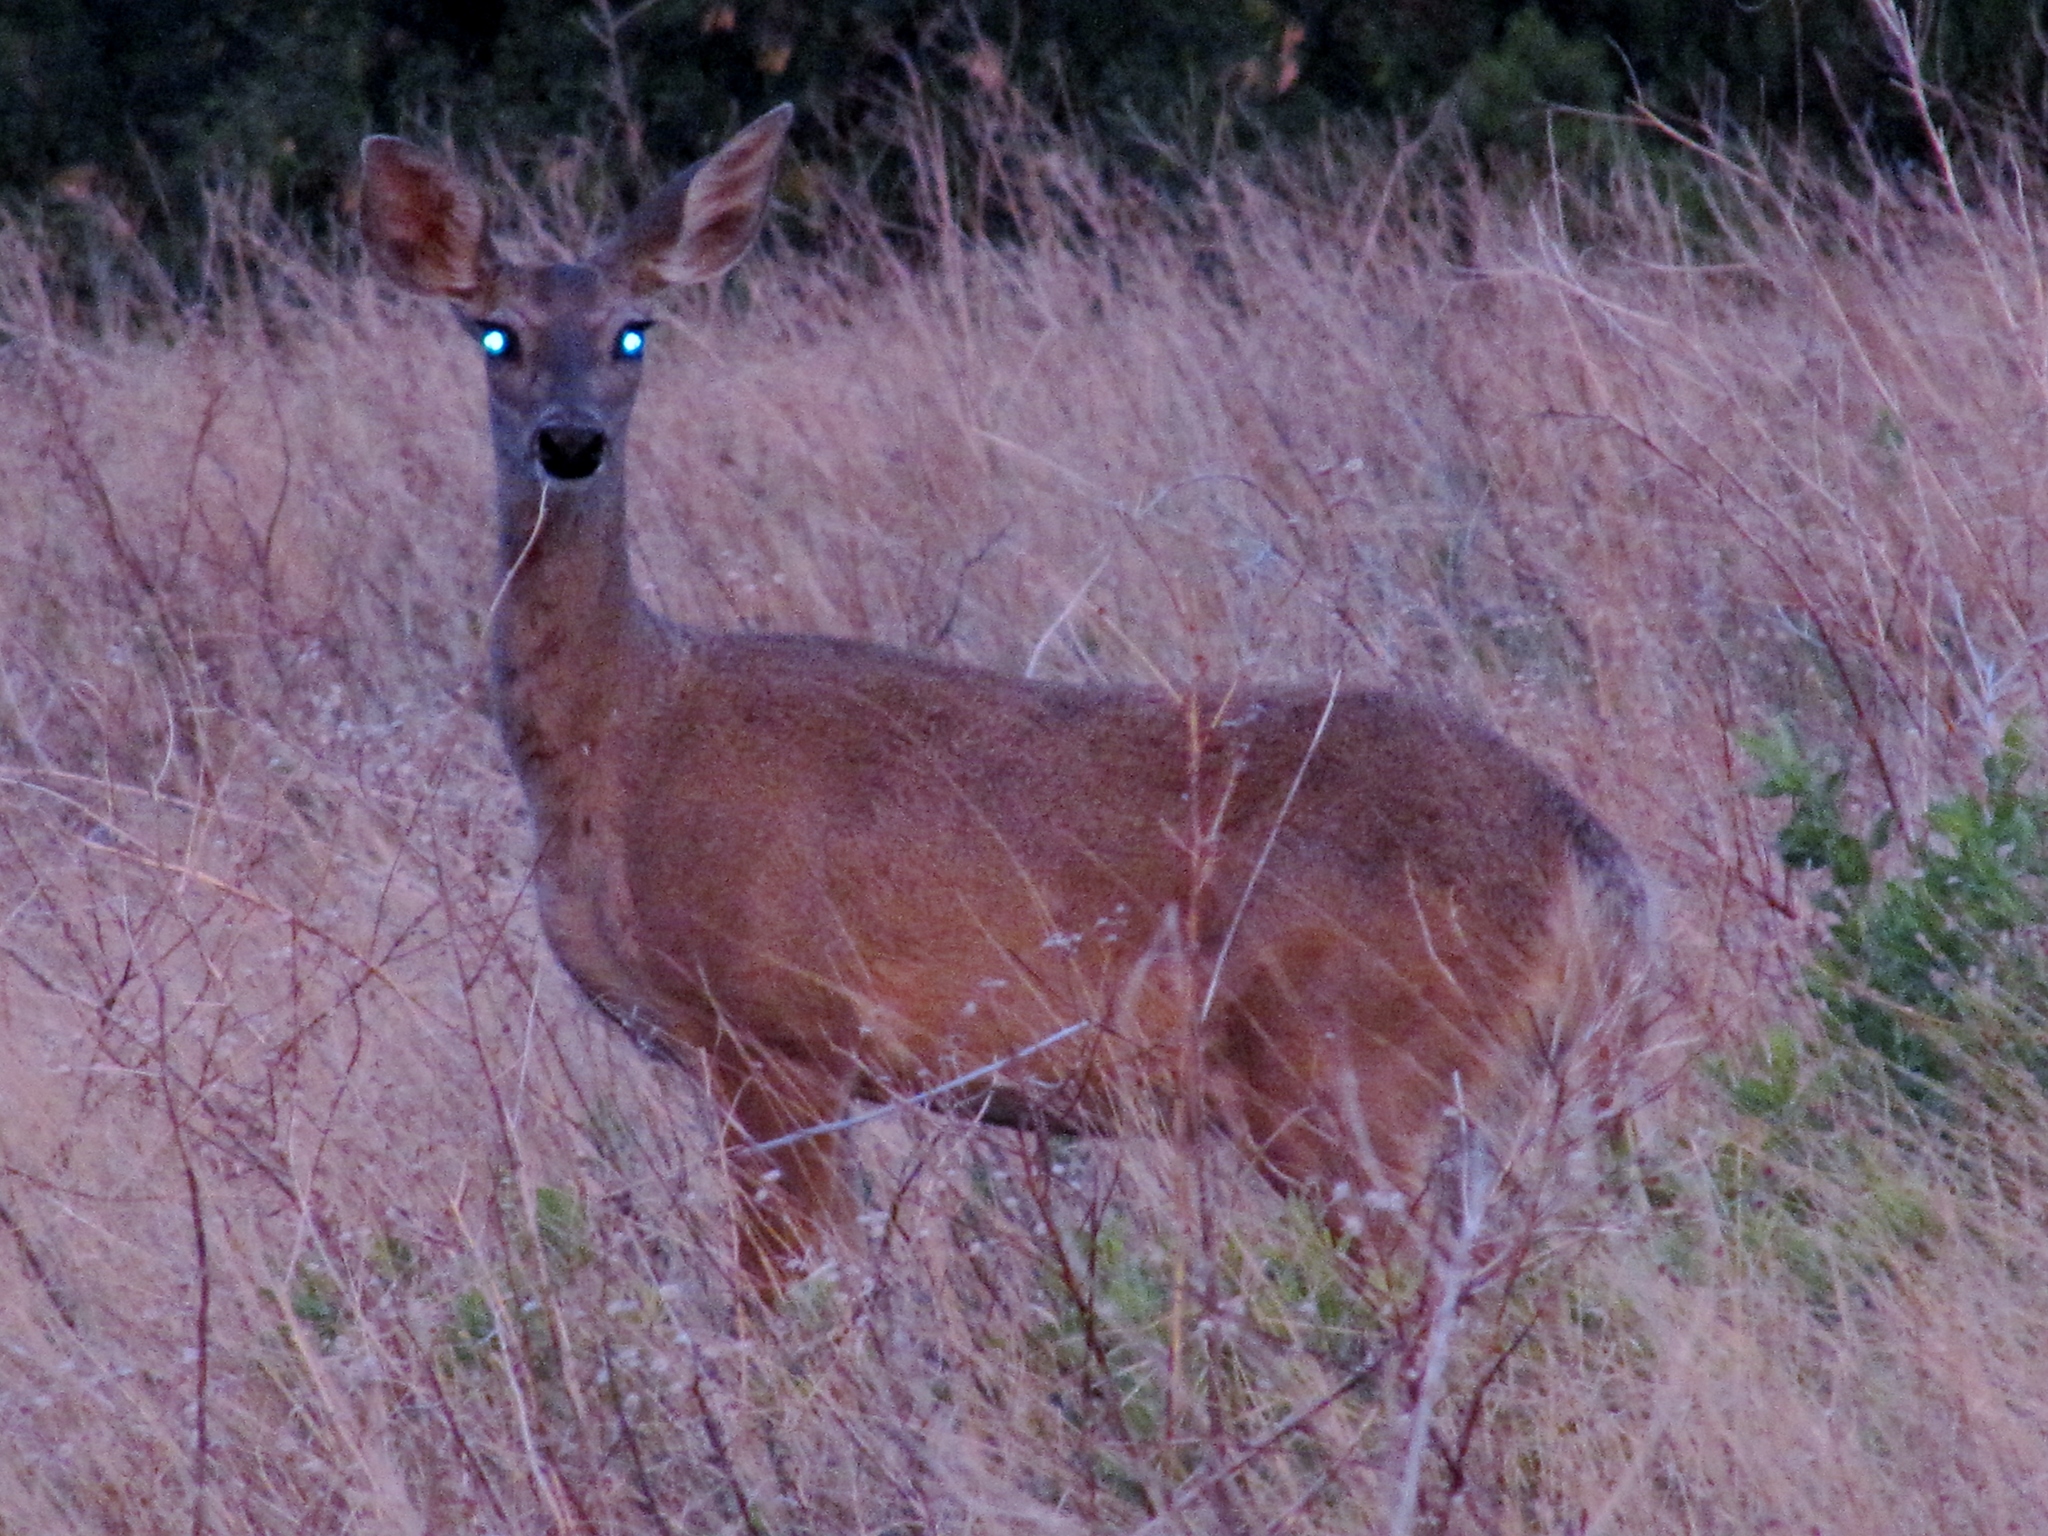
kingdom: Animalia
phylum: Chordata
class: Mammalia
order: Artiodactyla
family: Cervidae
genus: Odocoileus
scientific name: Odocoileus virginianus
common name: White-tailed deer
